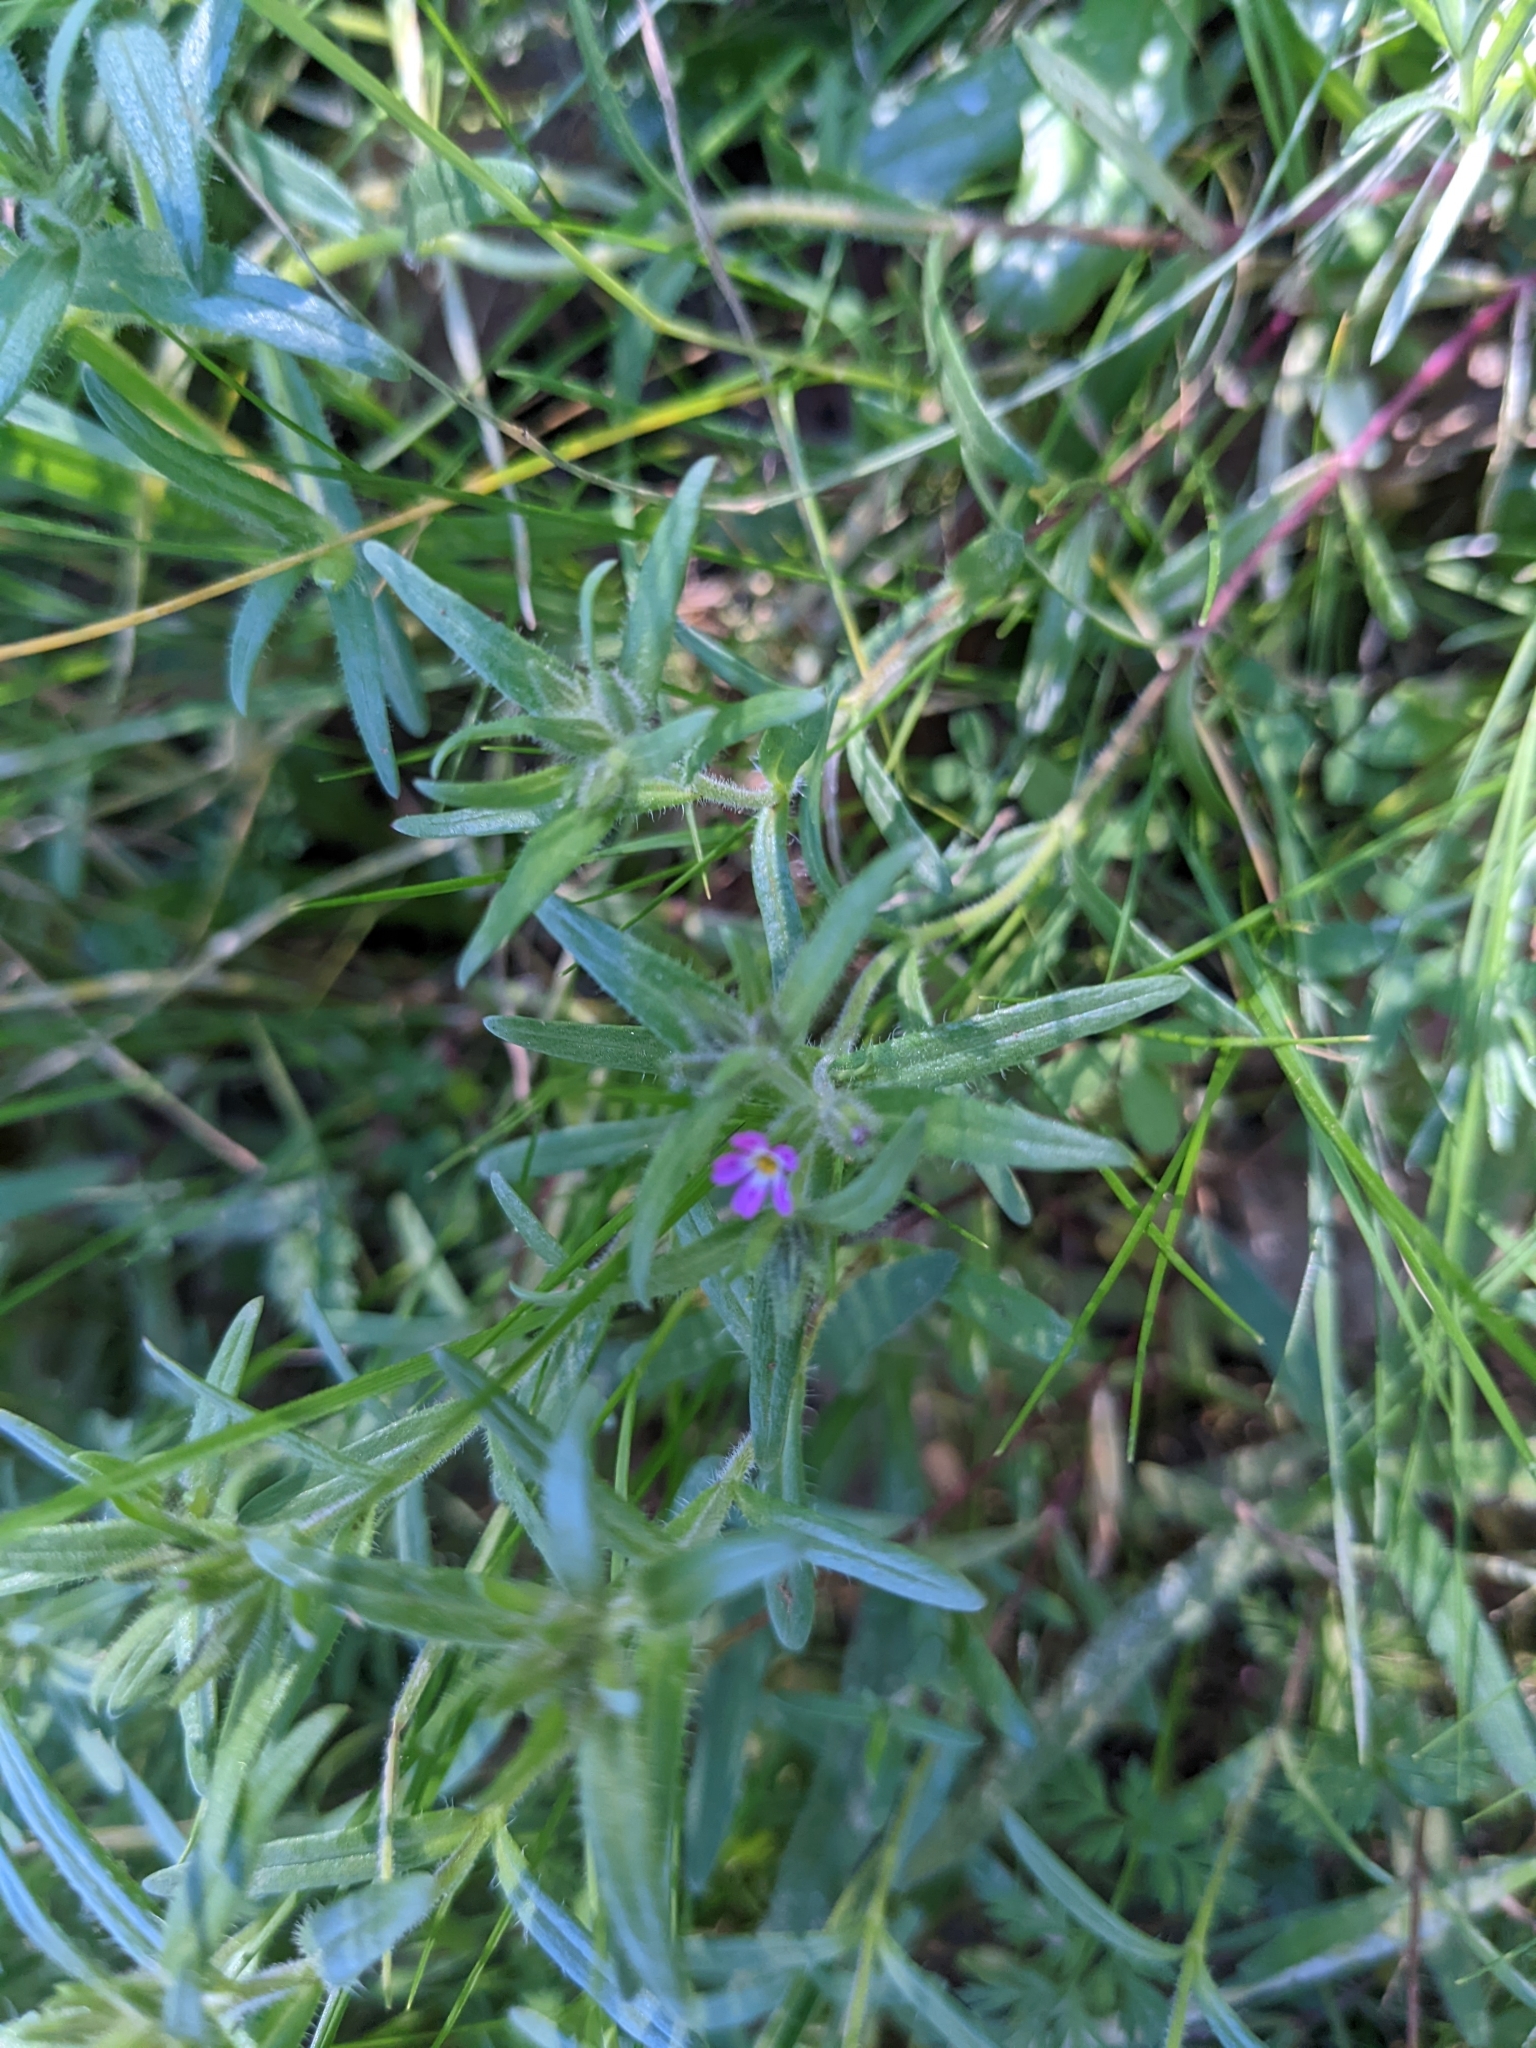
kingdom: Plantae
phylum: Tracheophyta
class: Magnoliopsida
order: Ericales
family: Polemoniaceae
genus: Phlox
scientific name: Phlox gracilis
